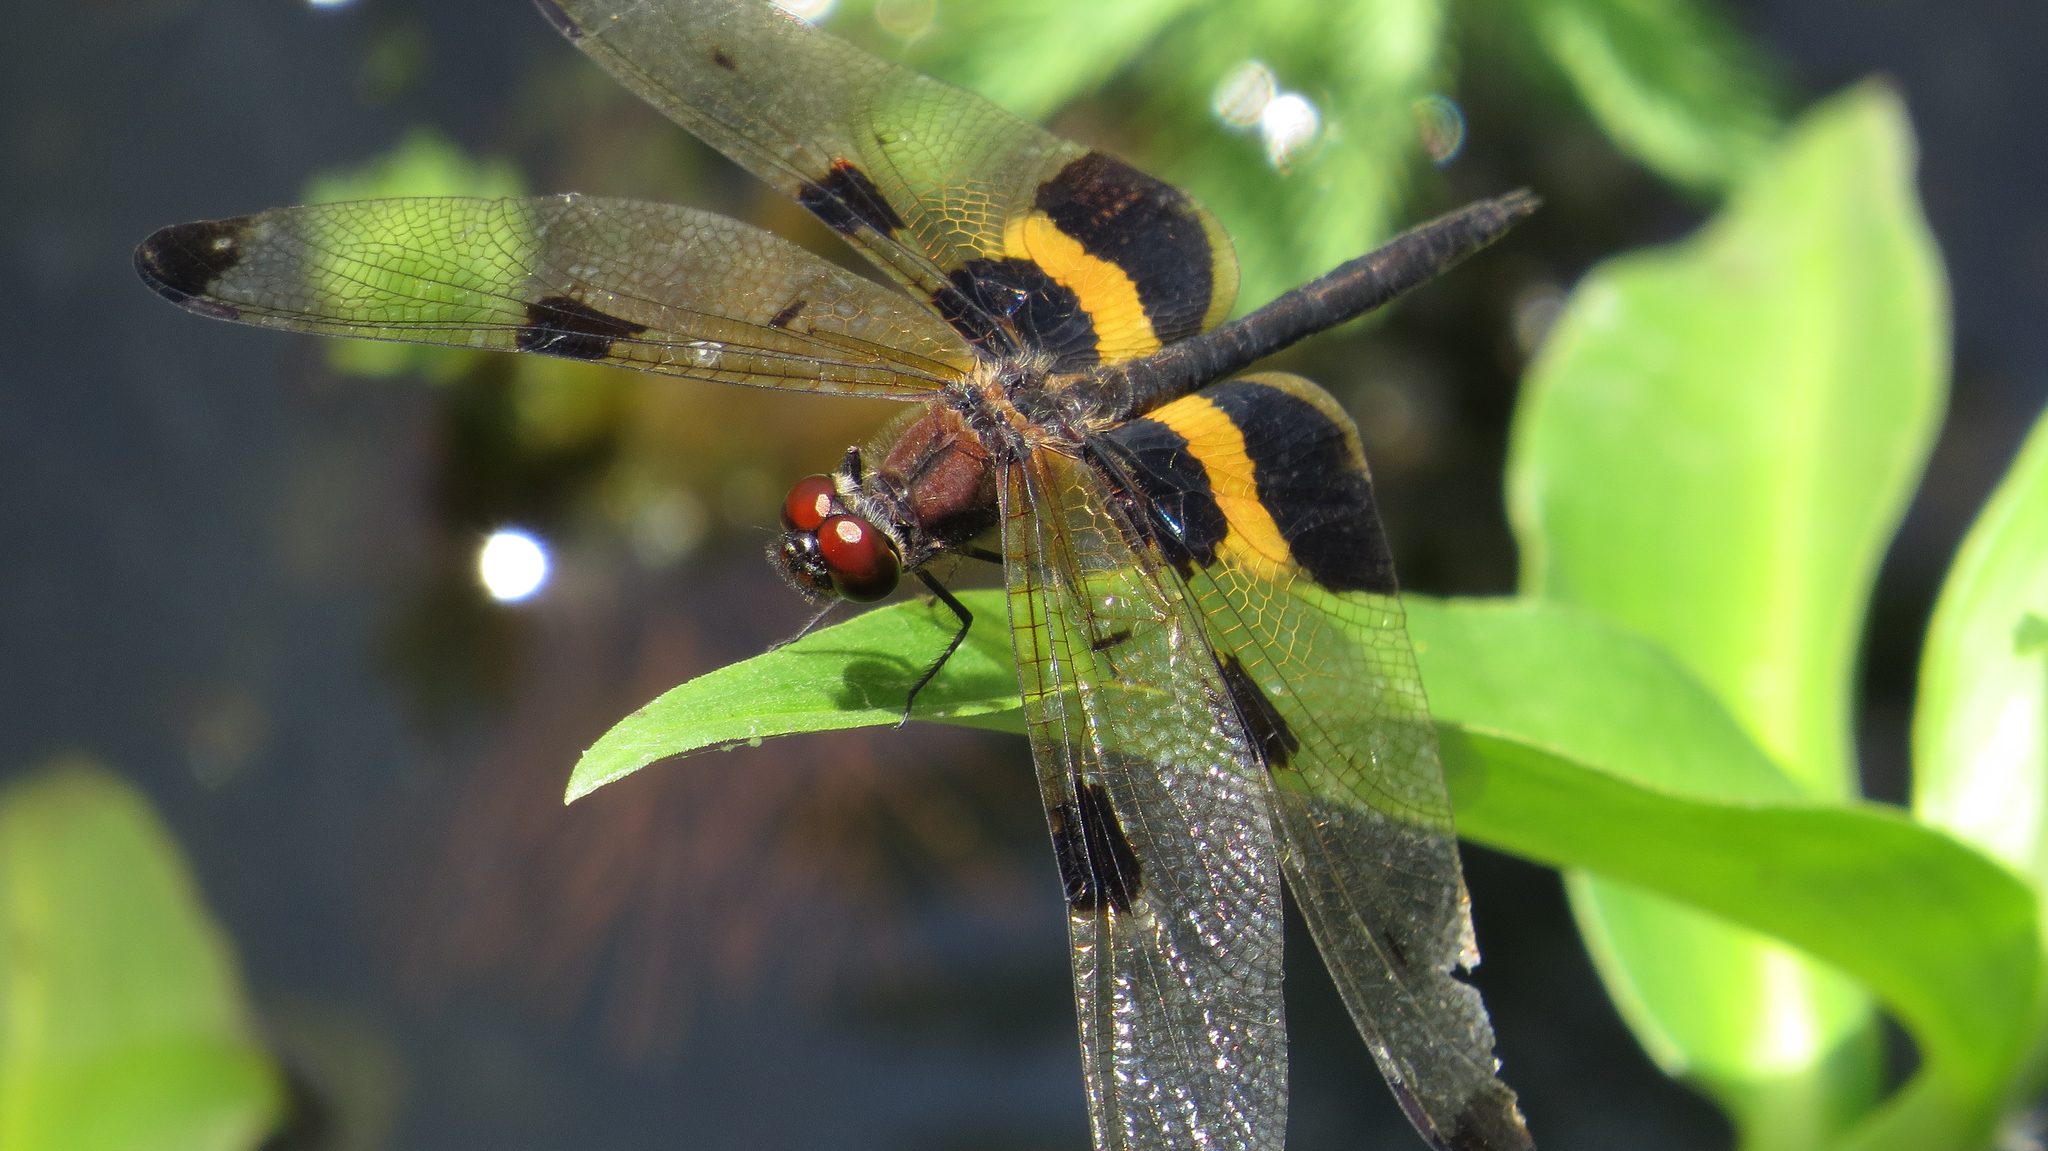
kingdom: Animalia
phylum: Arthropoda
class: Insecta
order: Odonata
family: Libellulidae
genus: Rhyothemis
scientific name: Rhyothemis phyllis
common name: Yellow-barred flutterer
